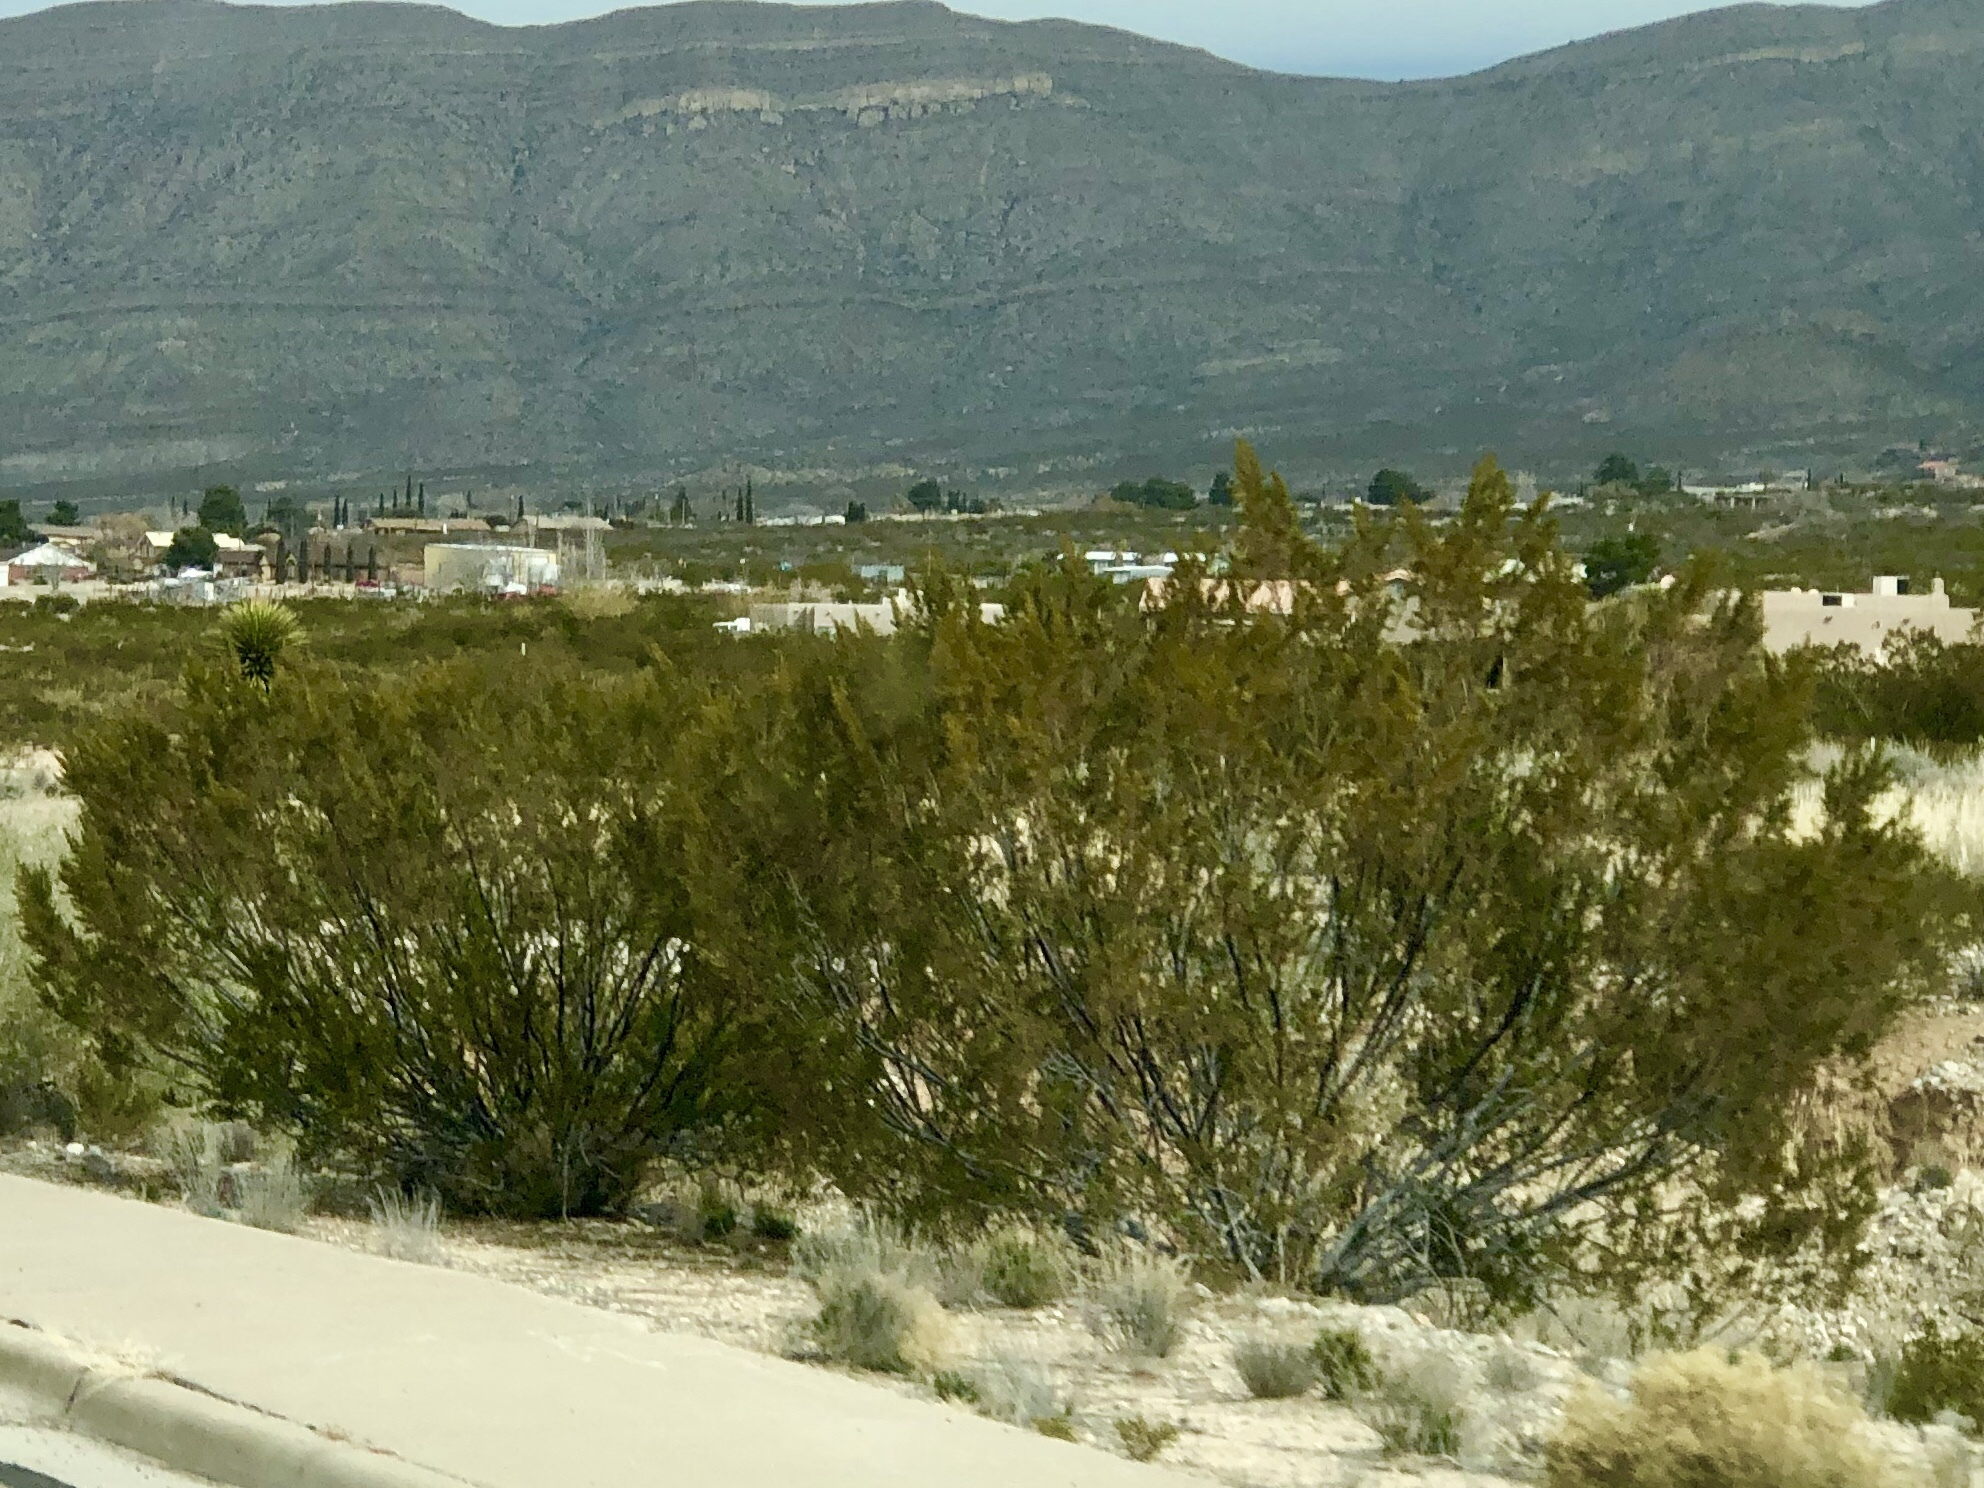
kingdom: Plantae
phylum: Tracheophyta
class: Magnoliopsida
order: Zygophyllales
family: Zygophyllaceae
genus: Larrea
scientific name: Larrea tridentata
